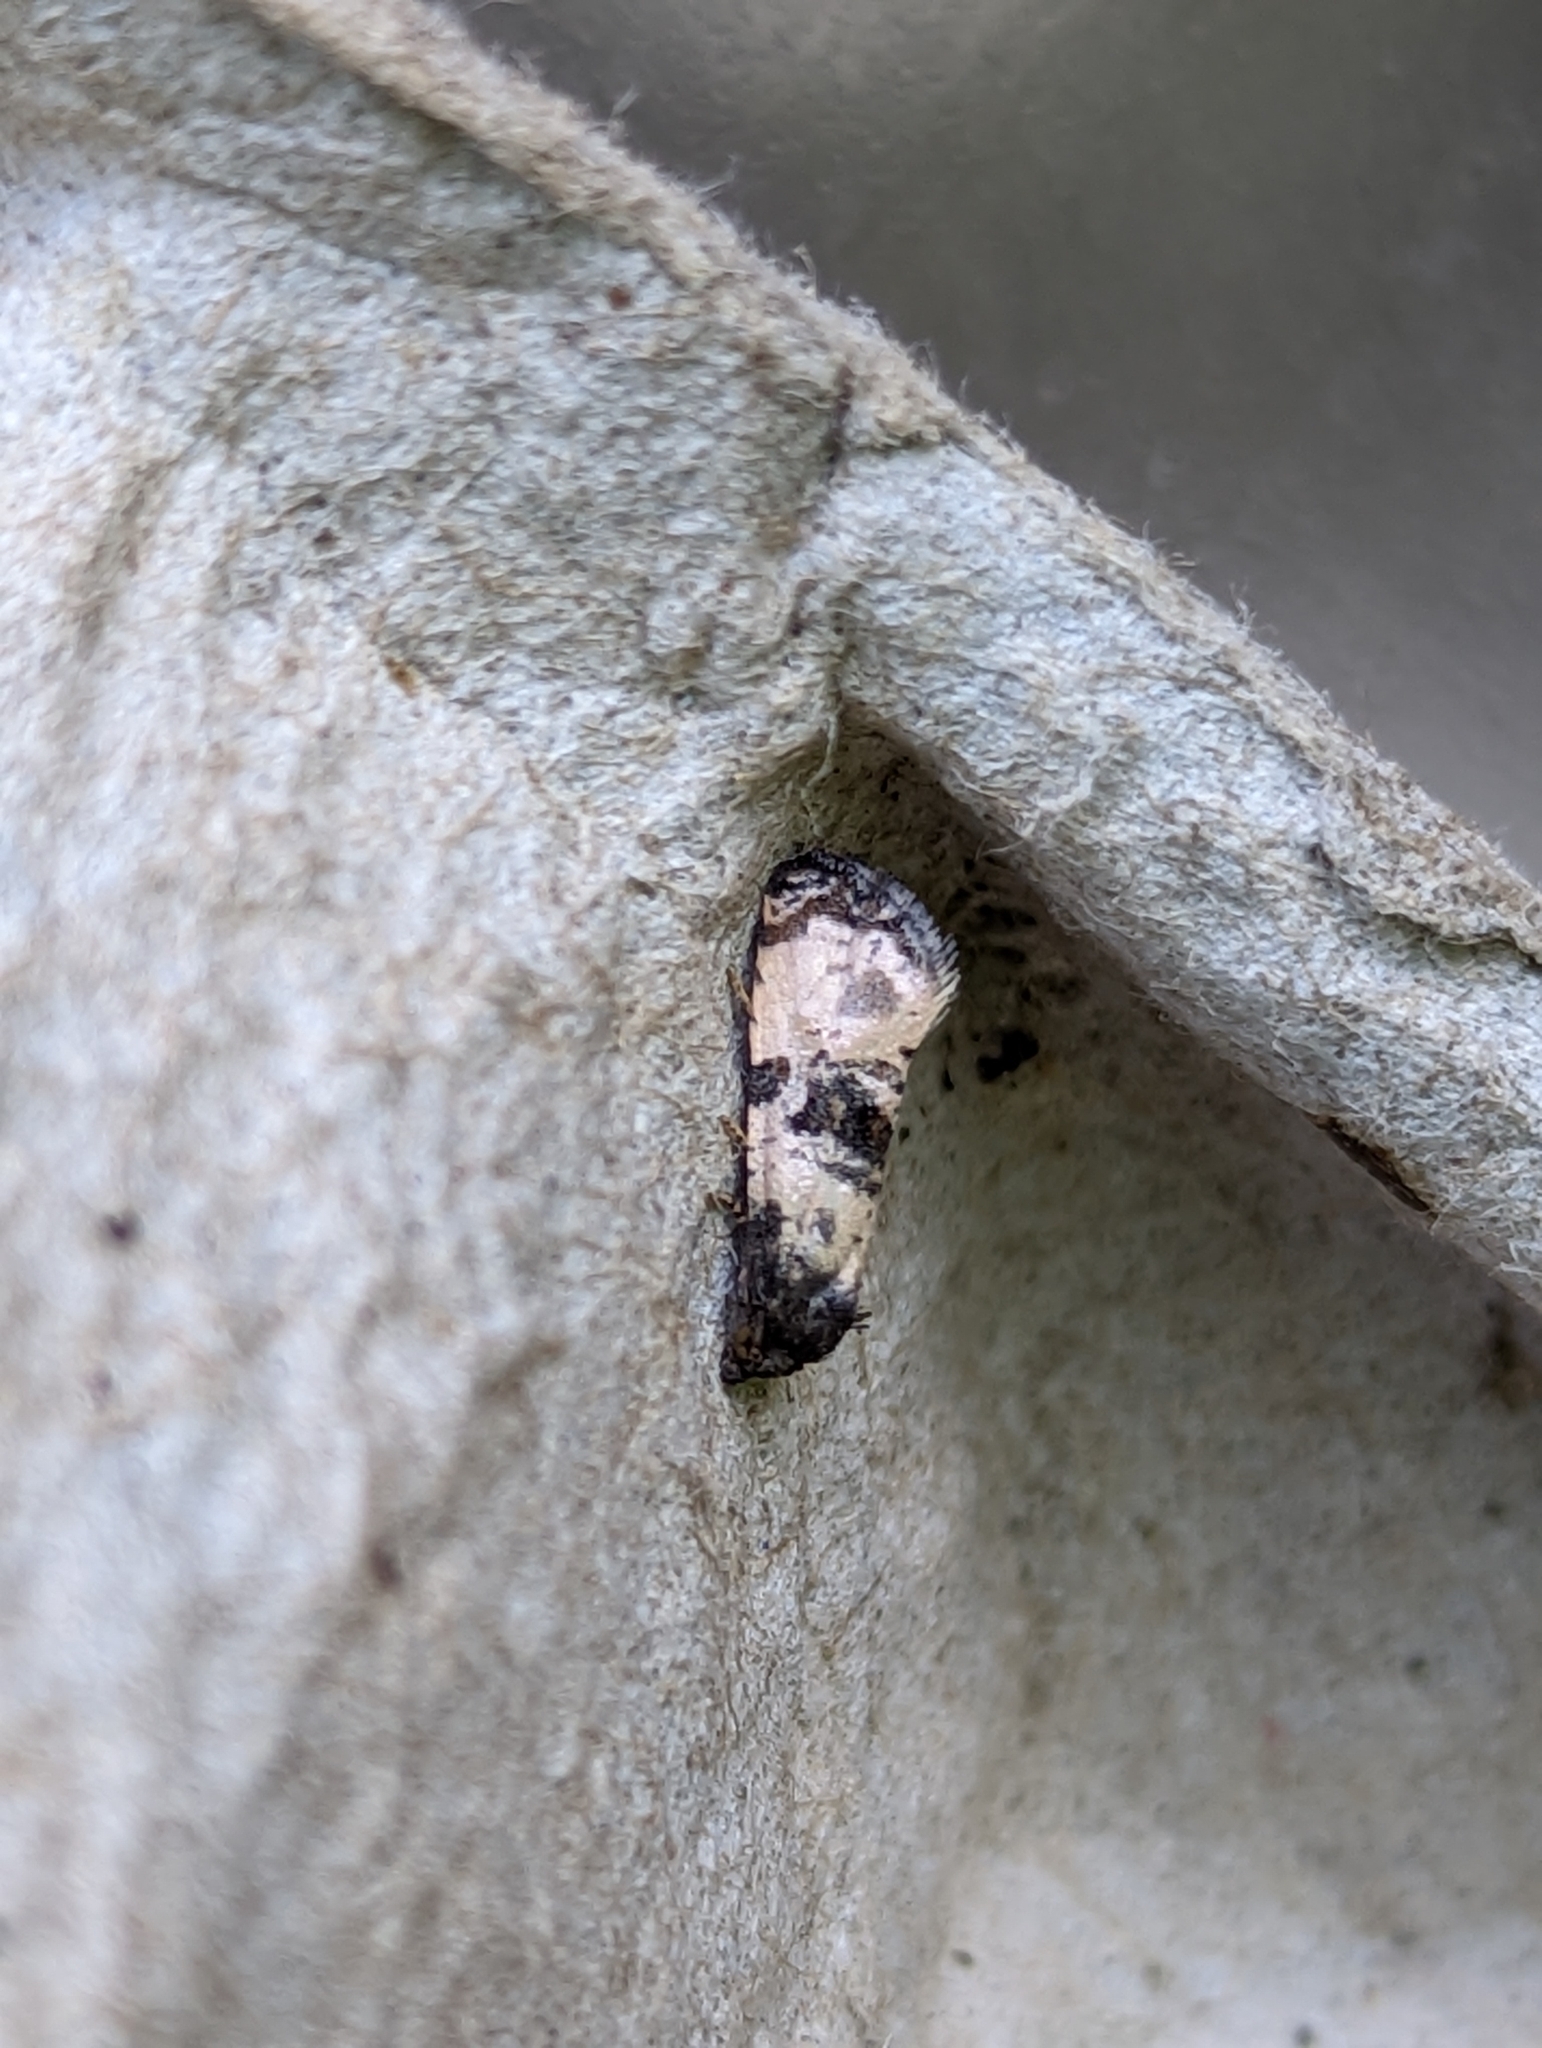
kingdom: Animalia
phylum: Arthropoda
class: Insecta
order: Lepidoptera
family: Tortricidae
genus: Cochylis
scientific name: Cochylis atricapitana
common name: Tortricid moth
